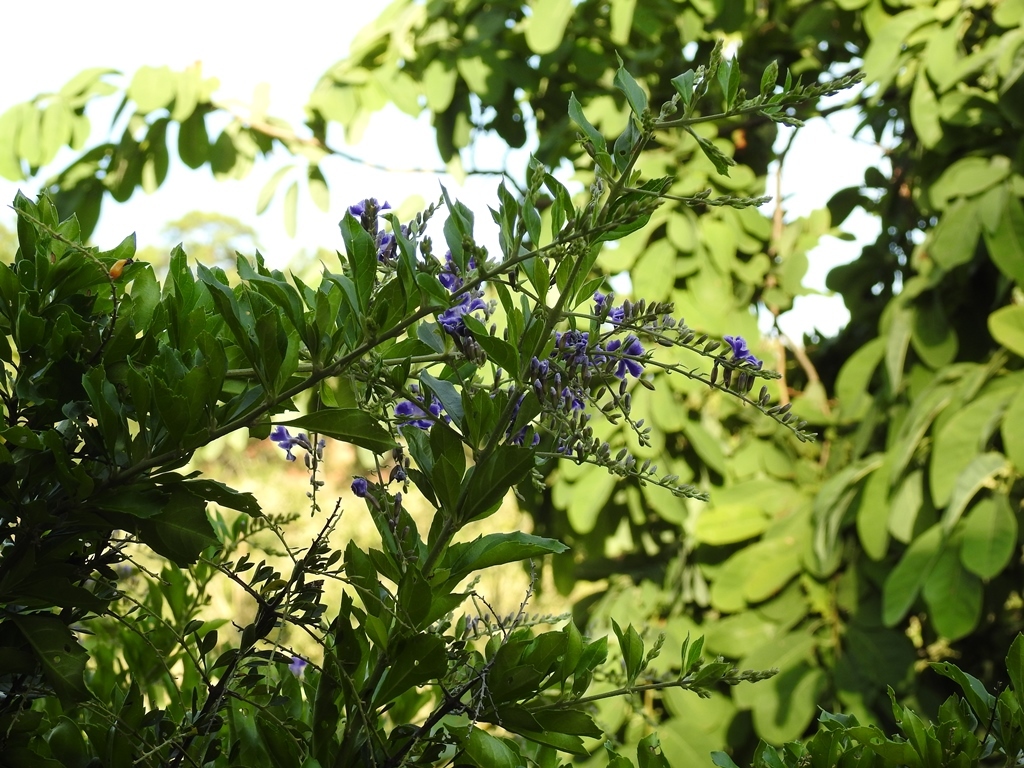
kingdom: Plantae
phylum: Tracheophyta
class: Magnoliopsida
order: Lamiales
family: Verbenaceae
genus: Duranta
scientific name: Duranta erecta
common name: Golden dewdrops
